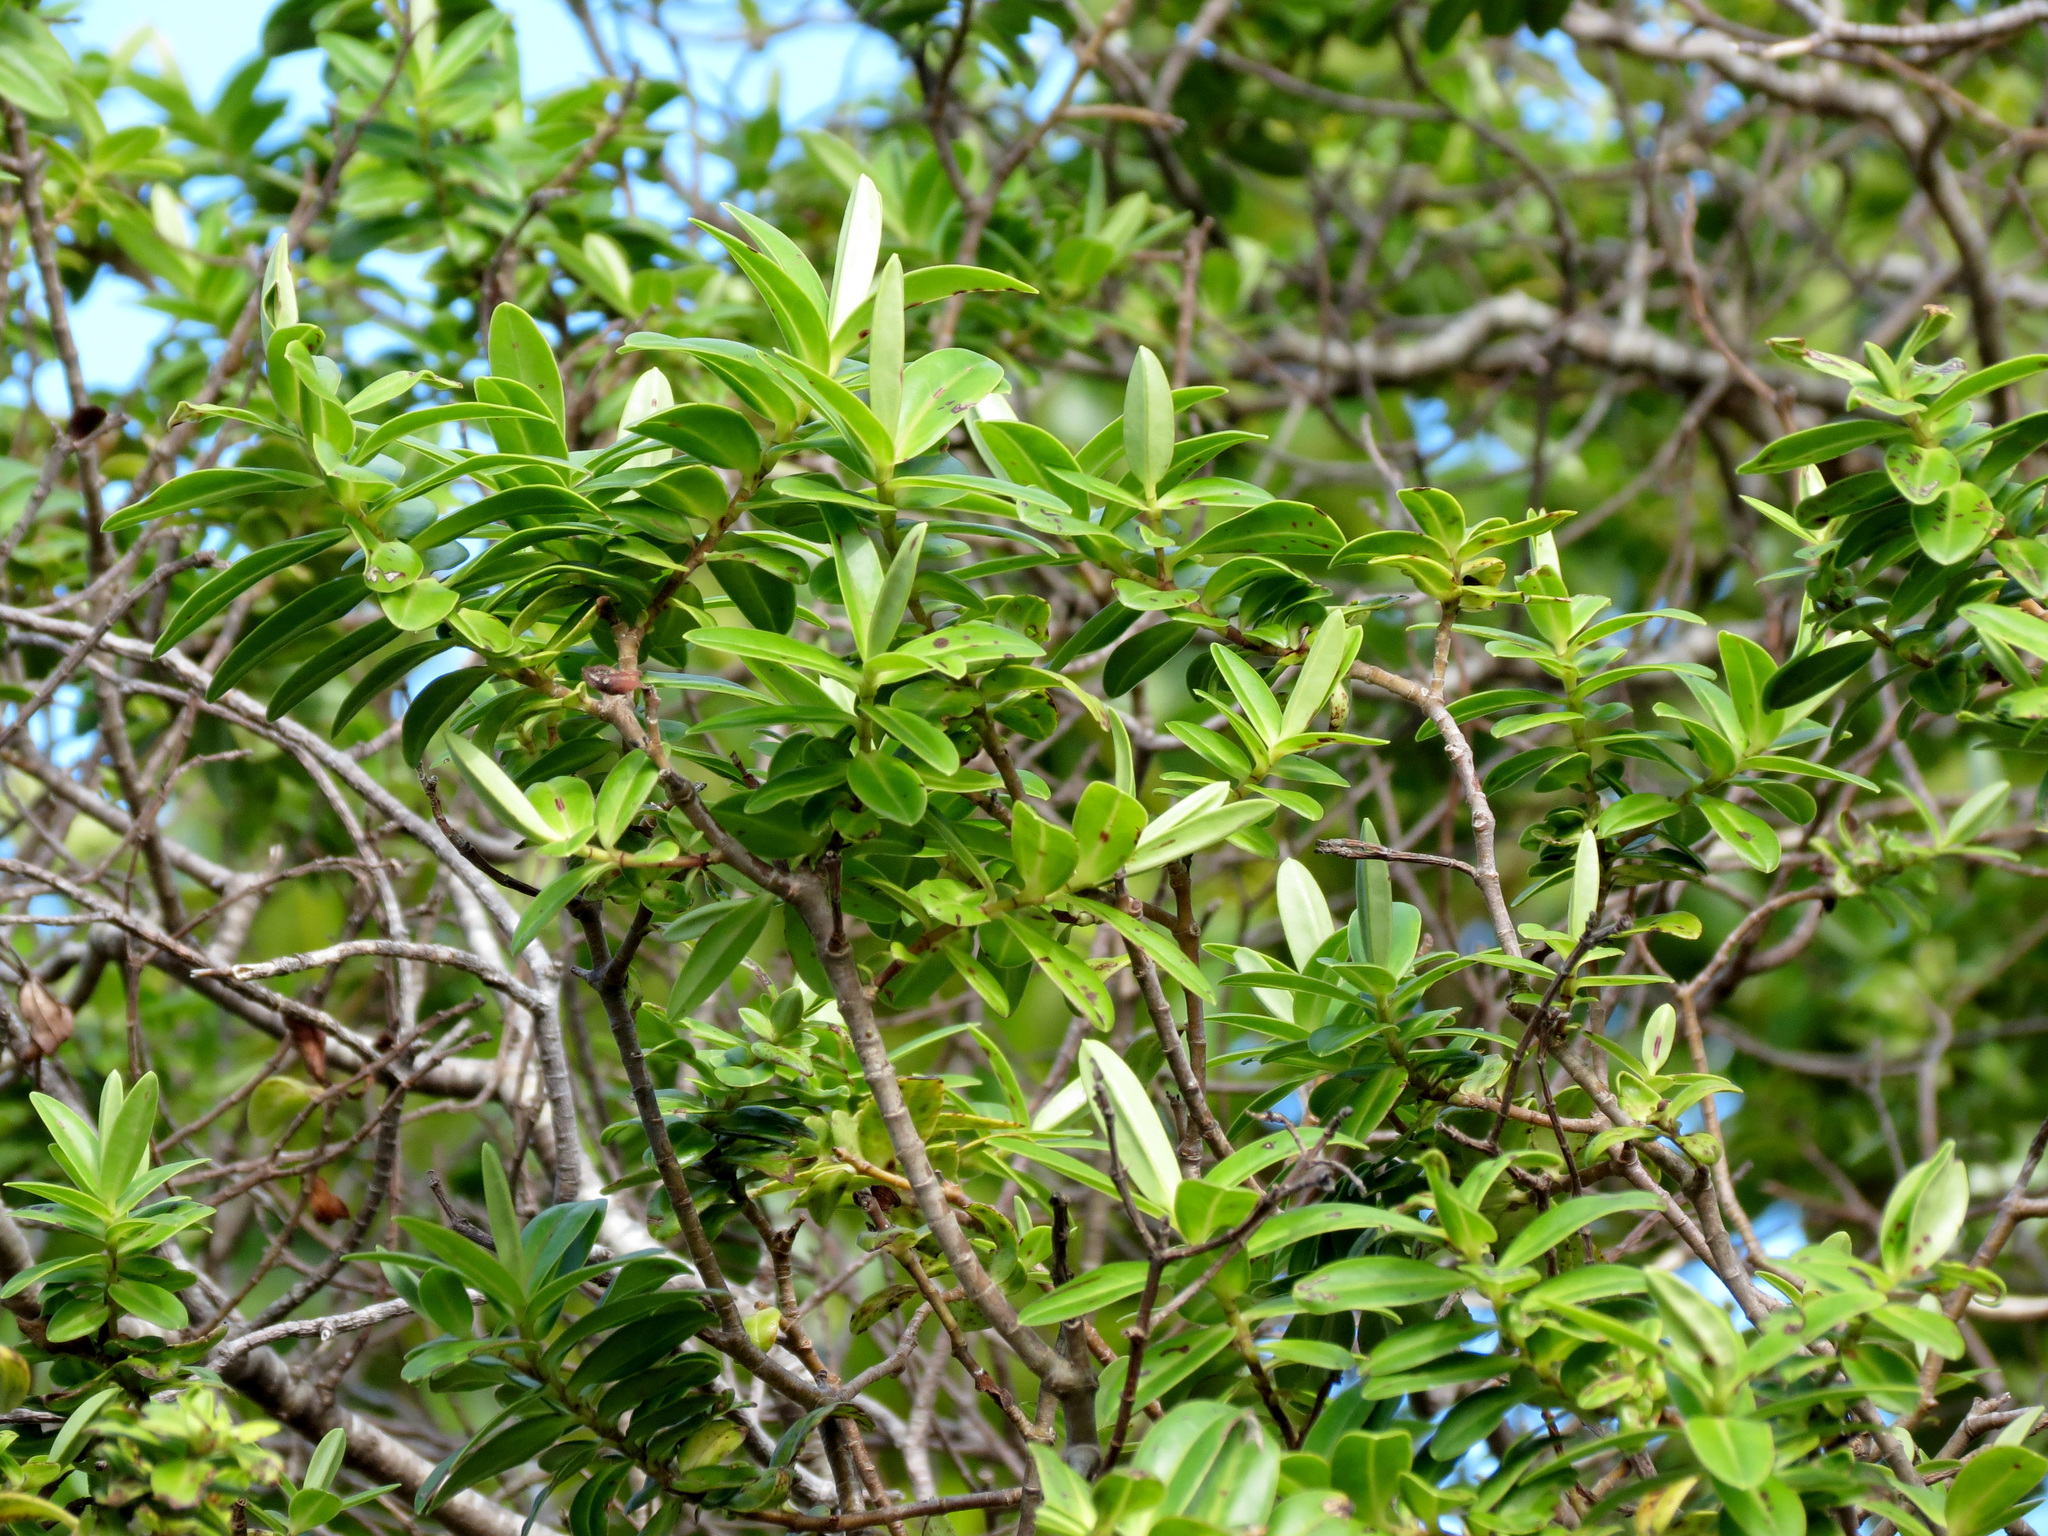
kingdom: Plantae
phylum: Tracheophyta
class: Magnoliopsida
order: Lamiales
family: Plantaginaceae
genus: Veronica
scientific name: Veronica elliptica
